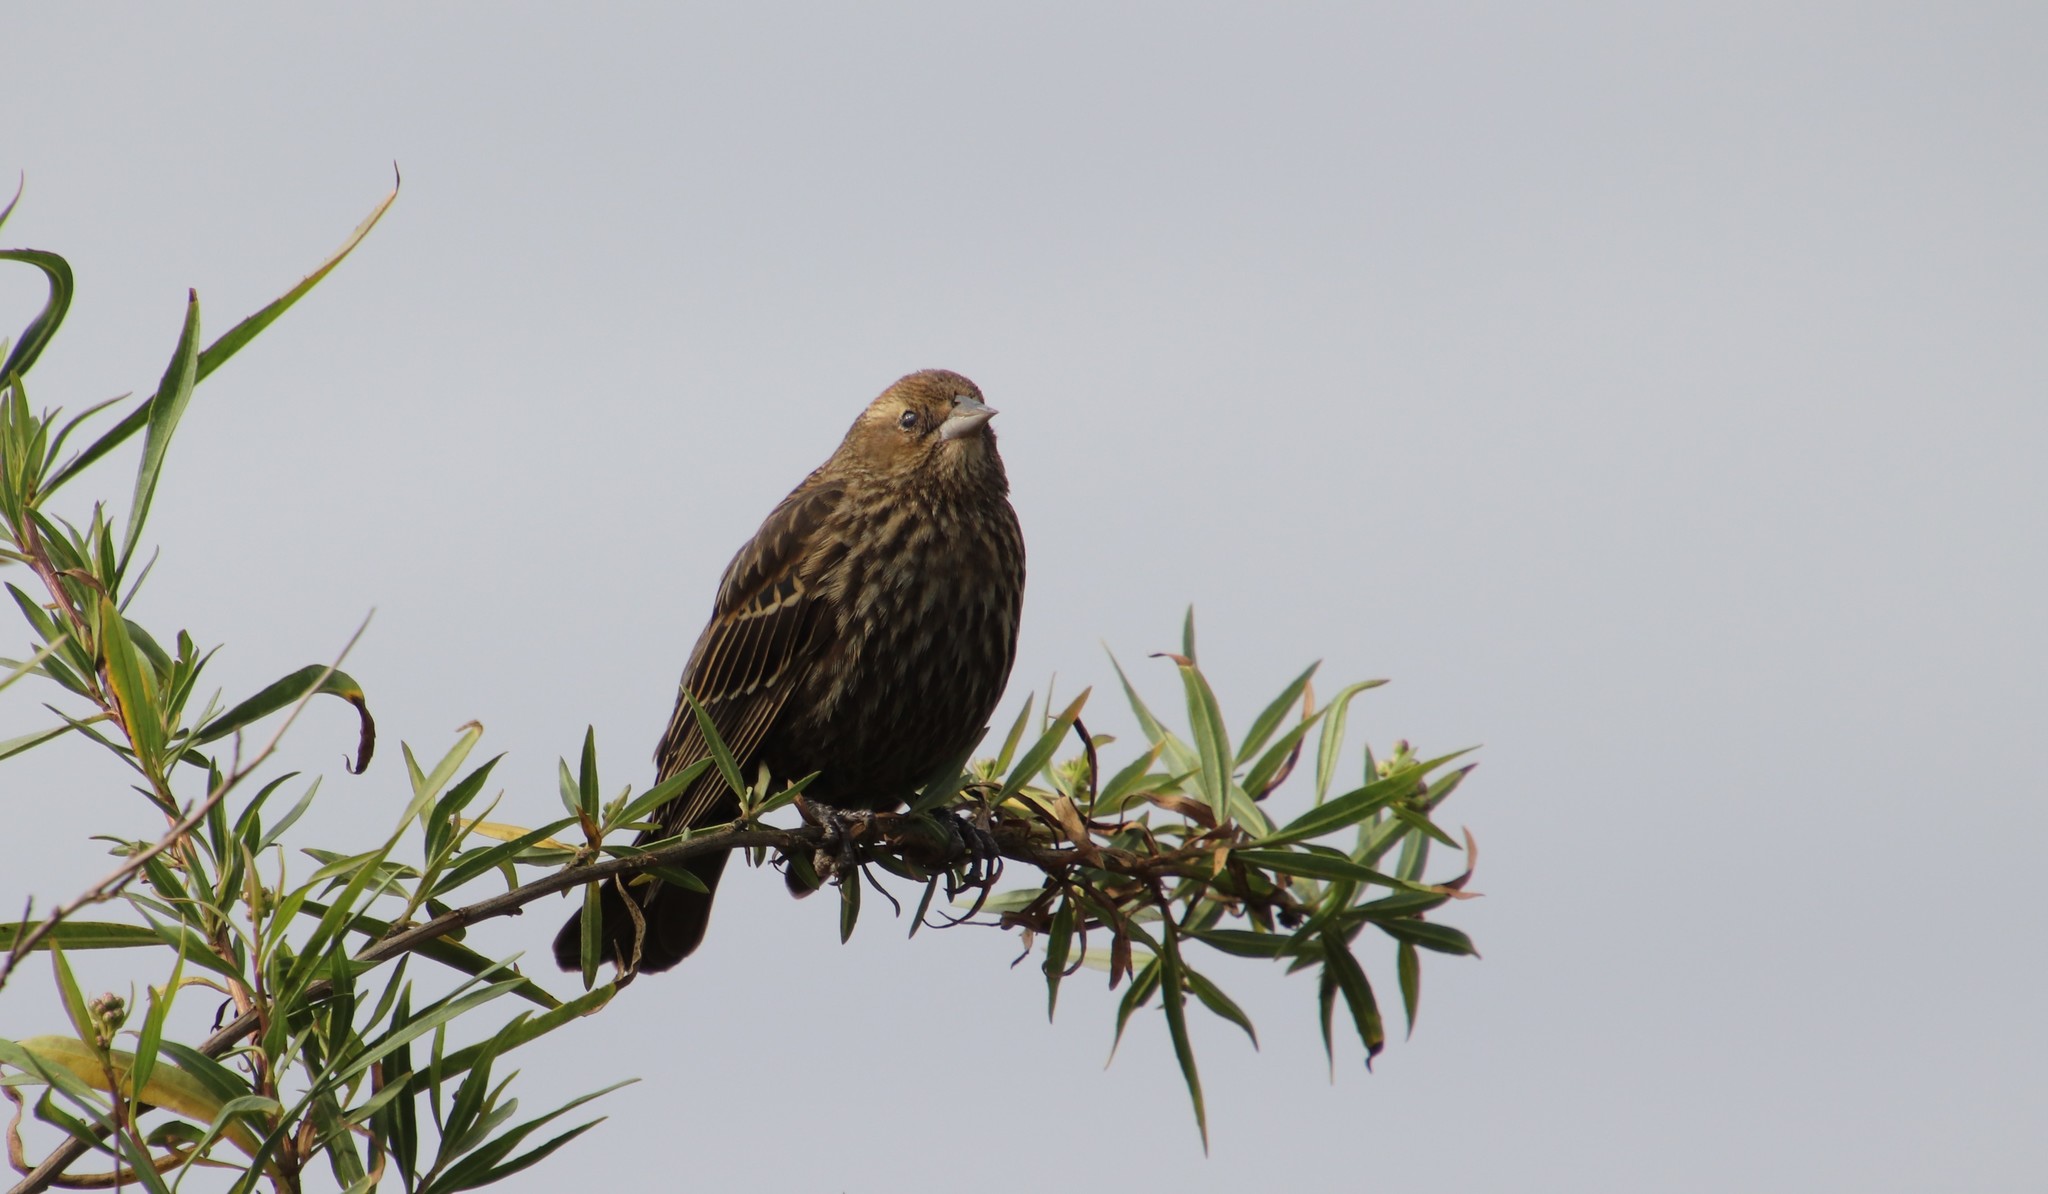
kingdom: Animalia
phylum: Chordata
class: Aves
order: Passeriformes
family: Icteridae
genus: Agelaius
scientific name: Agelaius phoeniceus
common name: Red-winged blackbird
